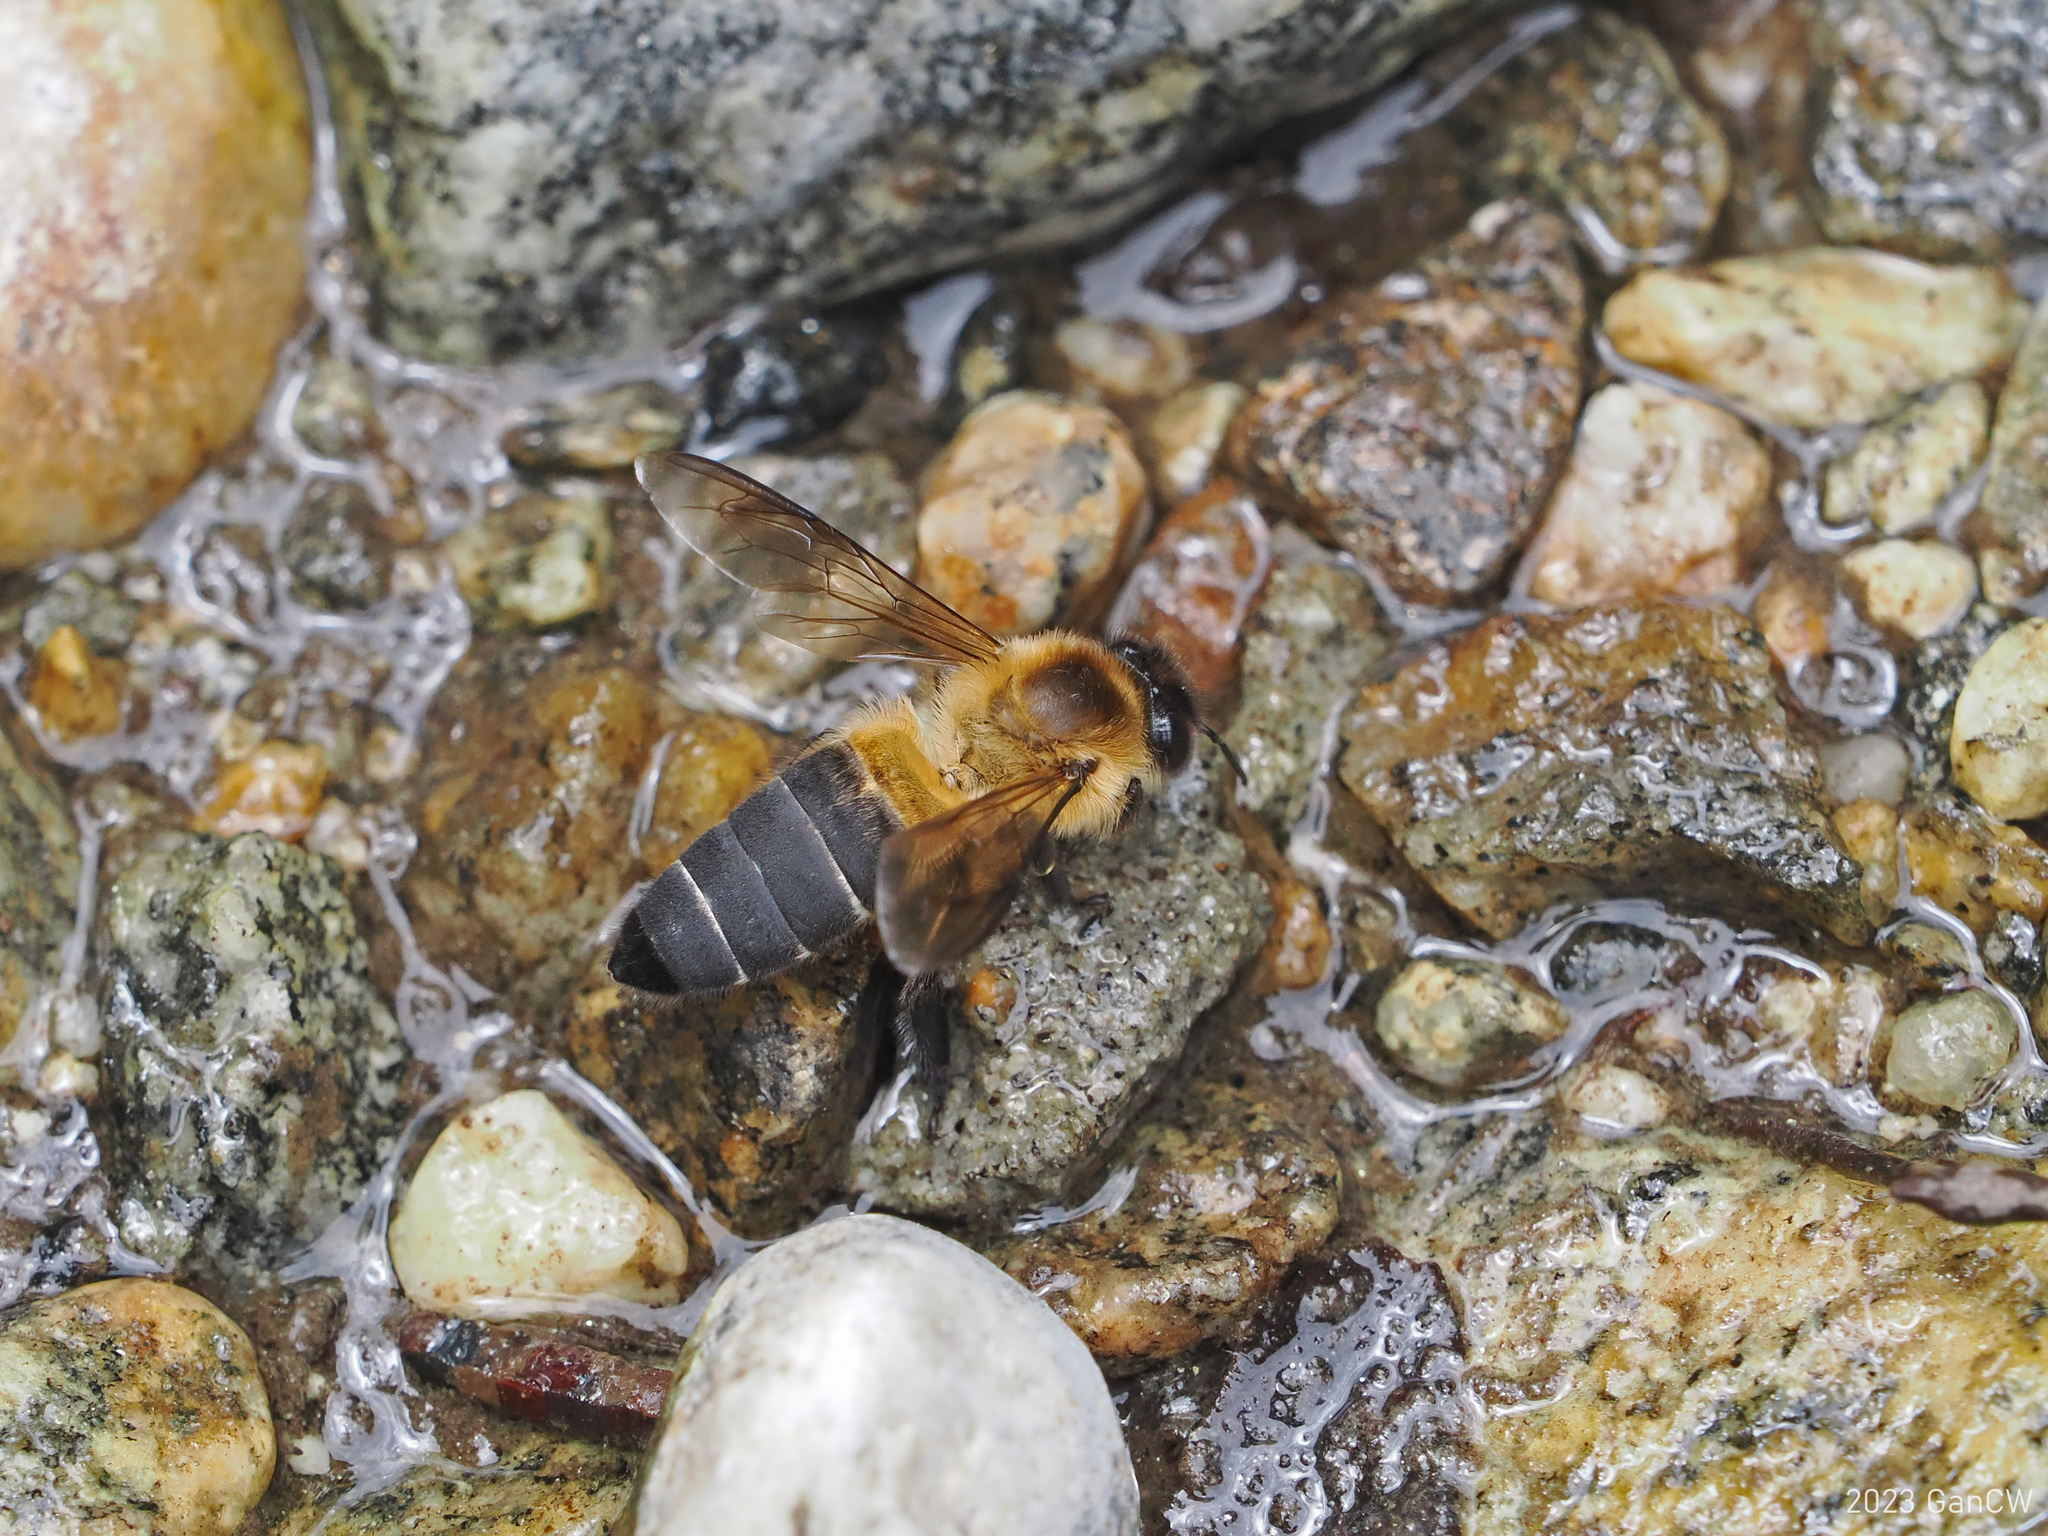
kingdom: Animalia
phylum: Arthropoda
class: Insecta
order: Hymenoptera
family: Apidae
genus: Apis
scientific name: Apis laboriosa
